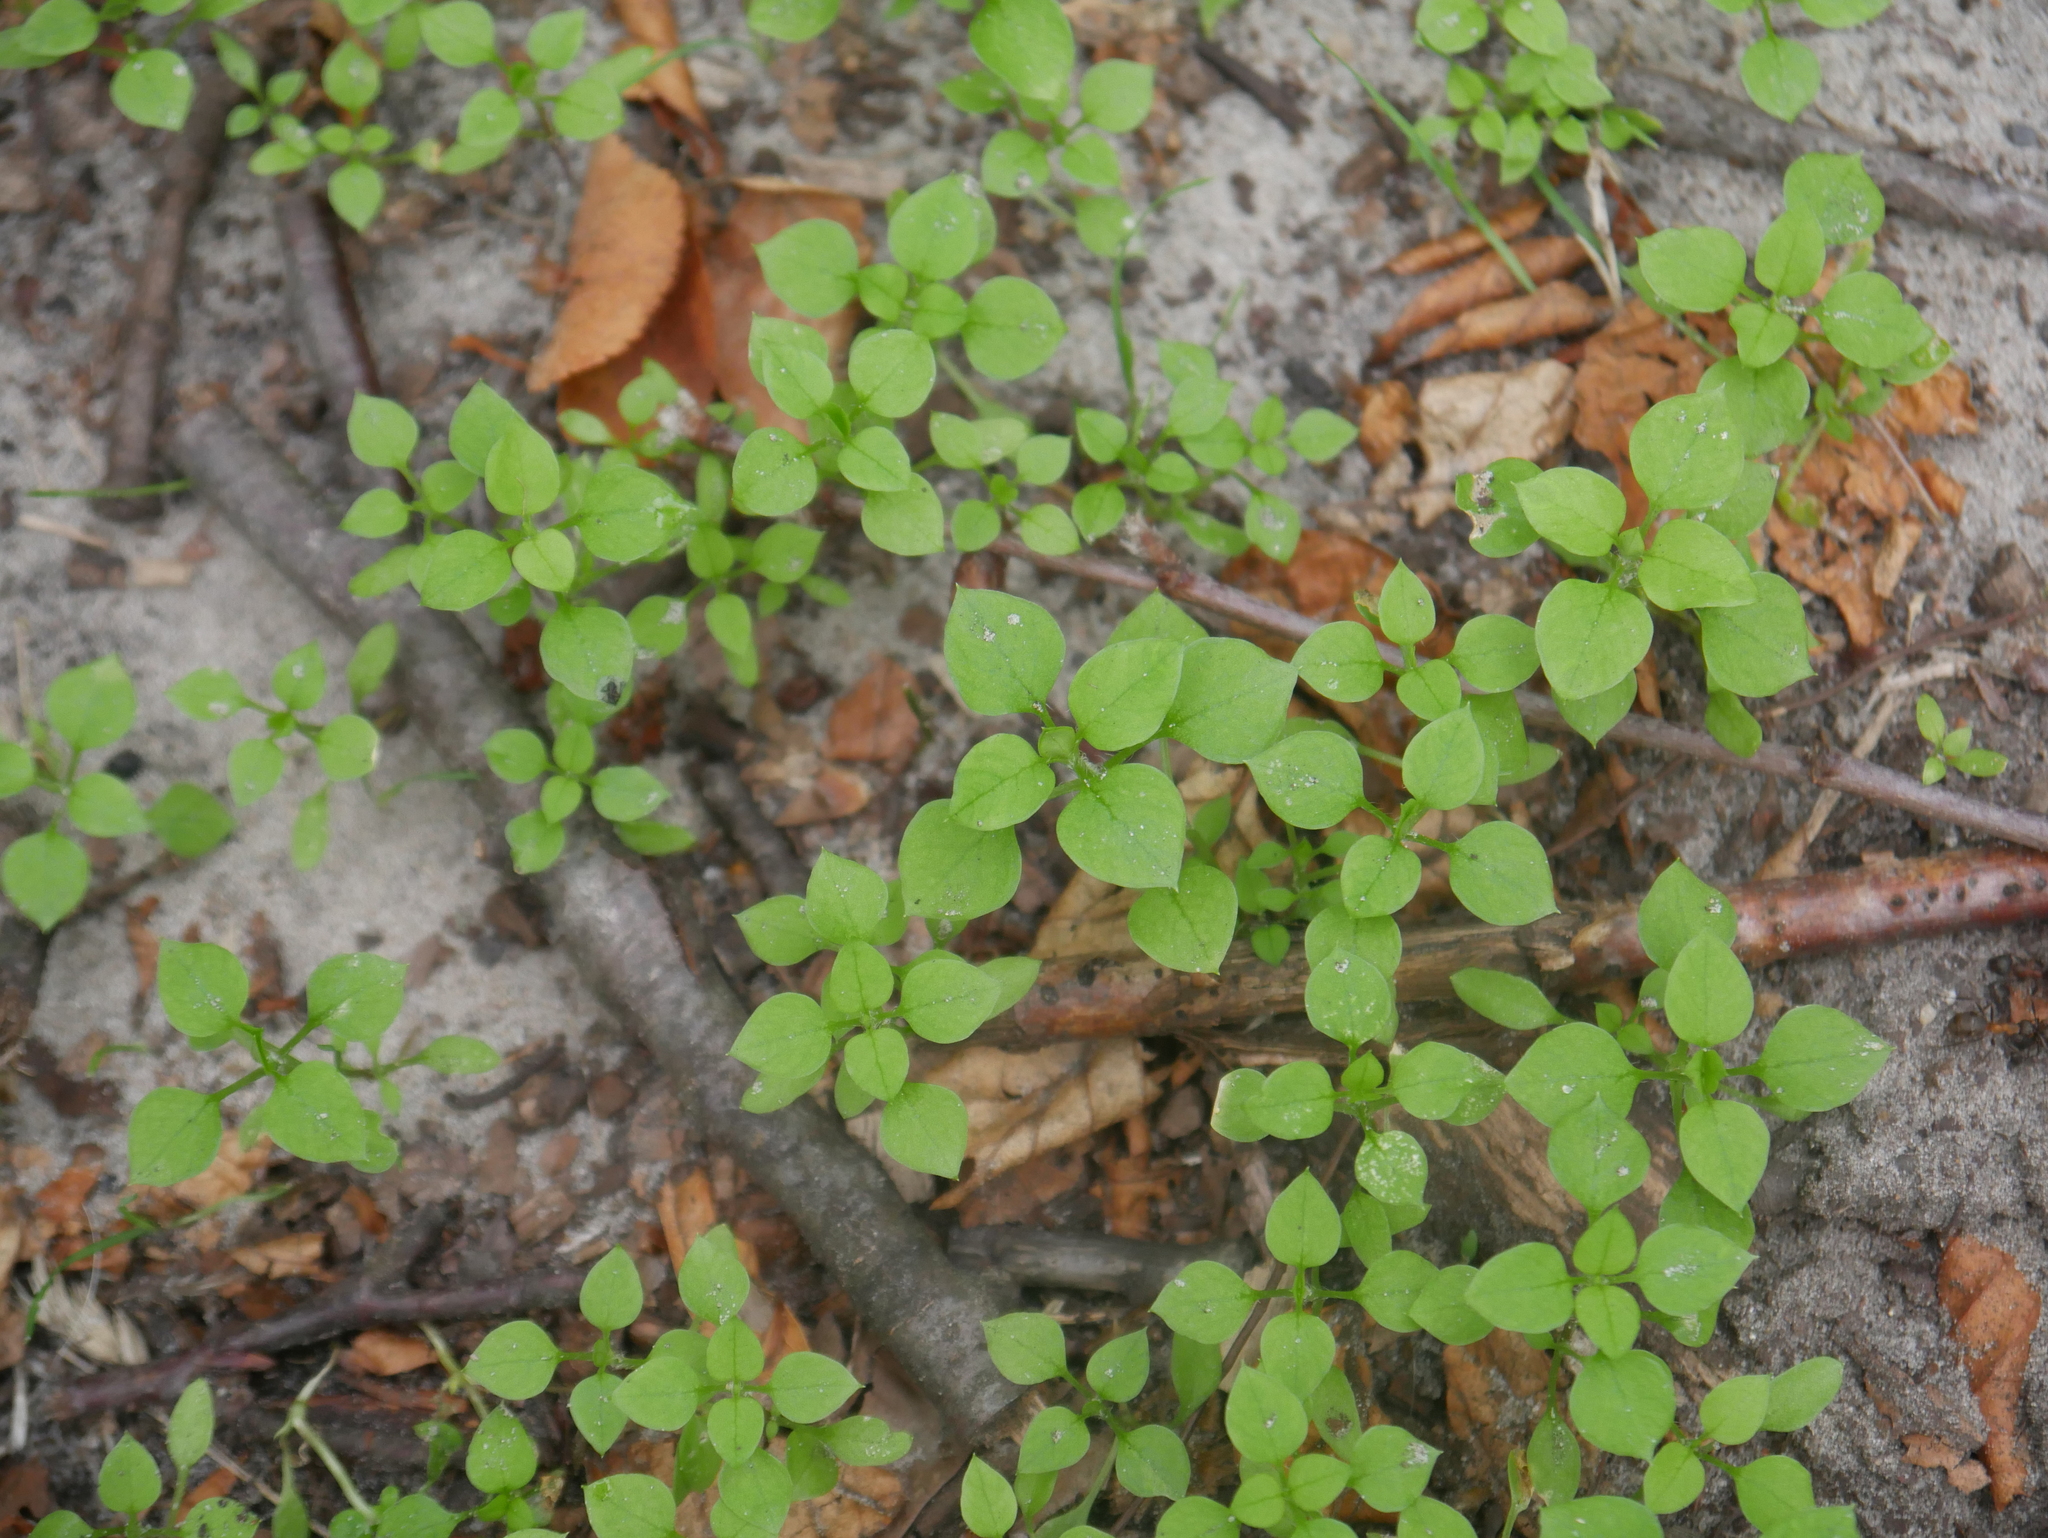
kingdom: Plantae
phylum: Tracheophyta
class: Magnoliopsida
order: Caryophyllales
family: Caryophyllaceae
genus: Stellaria
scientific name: Stellaria media
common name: Common chickweed
